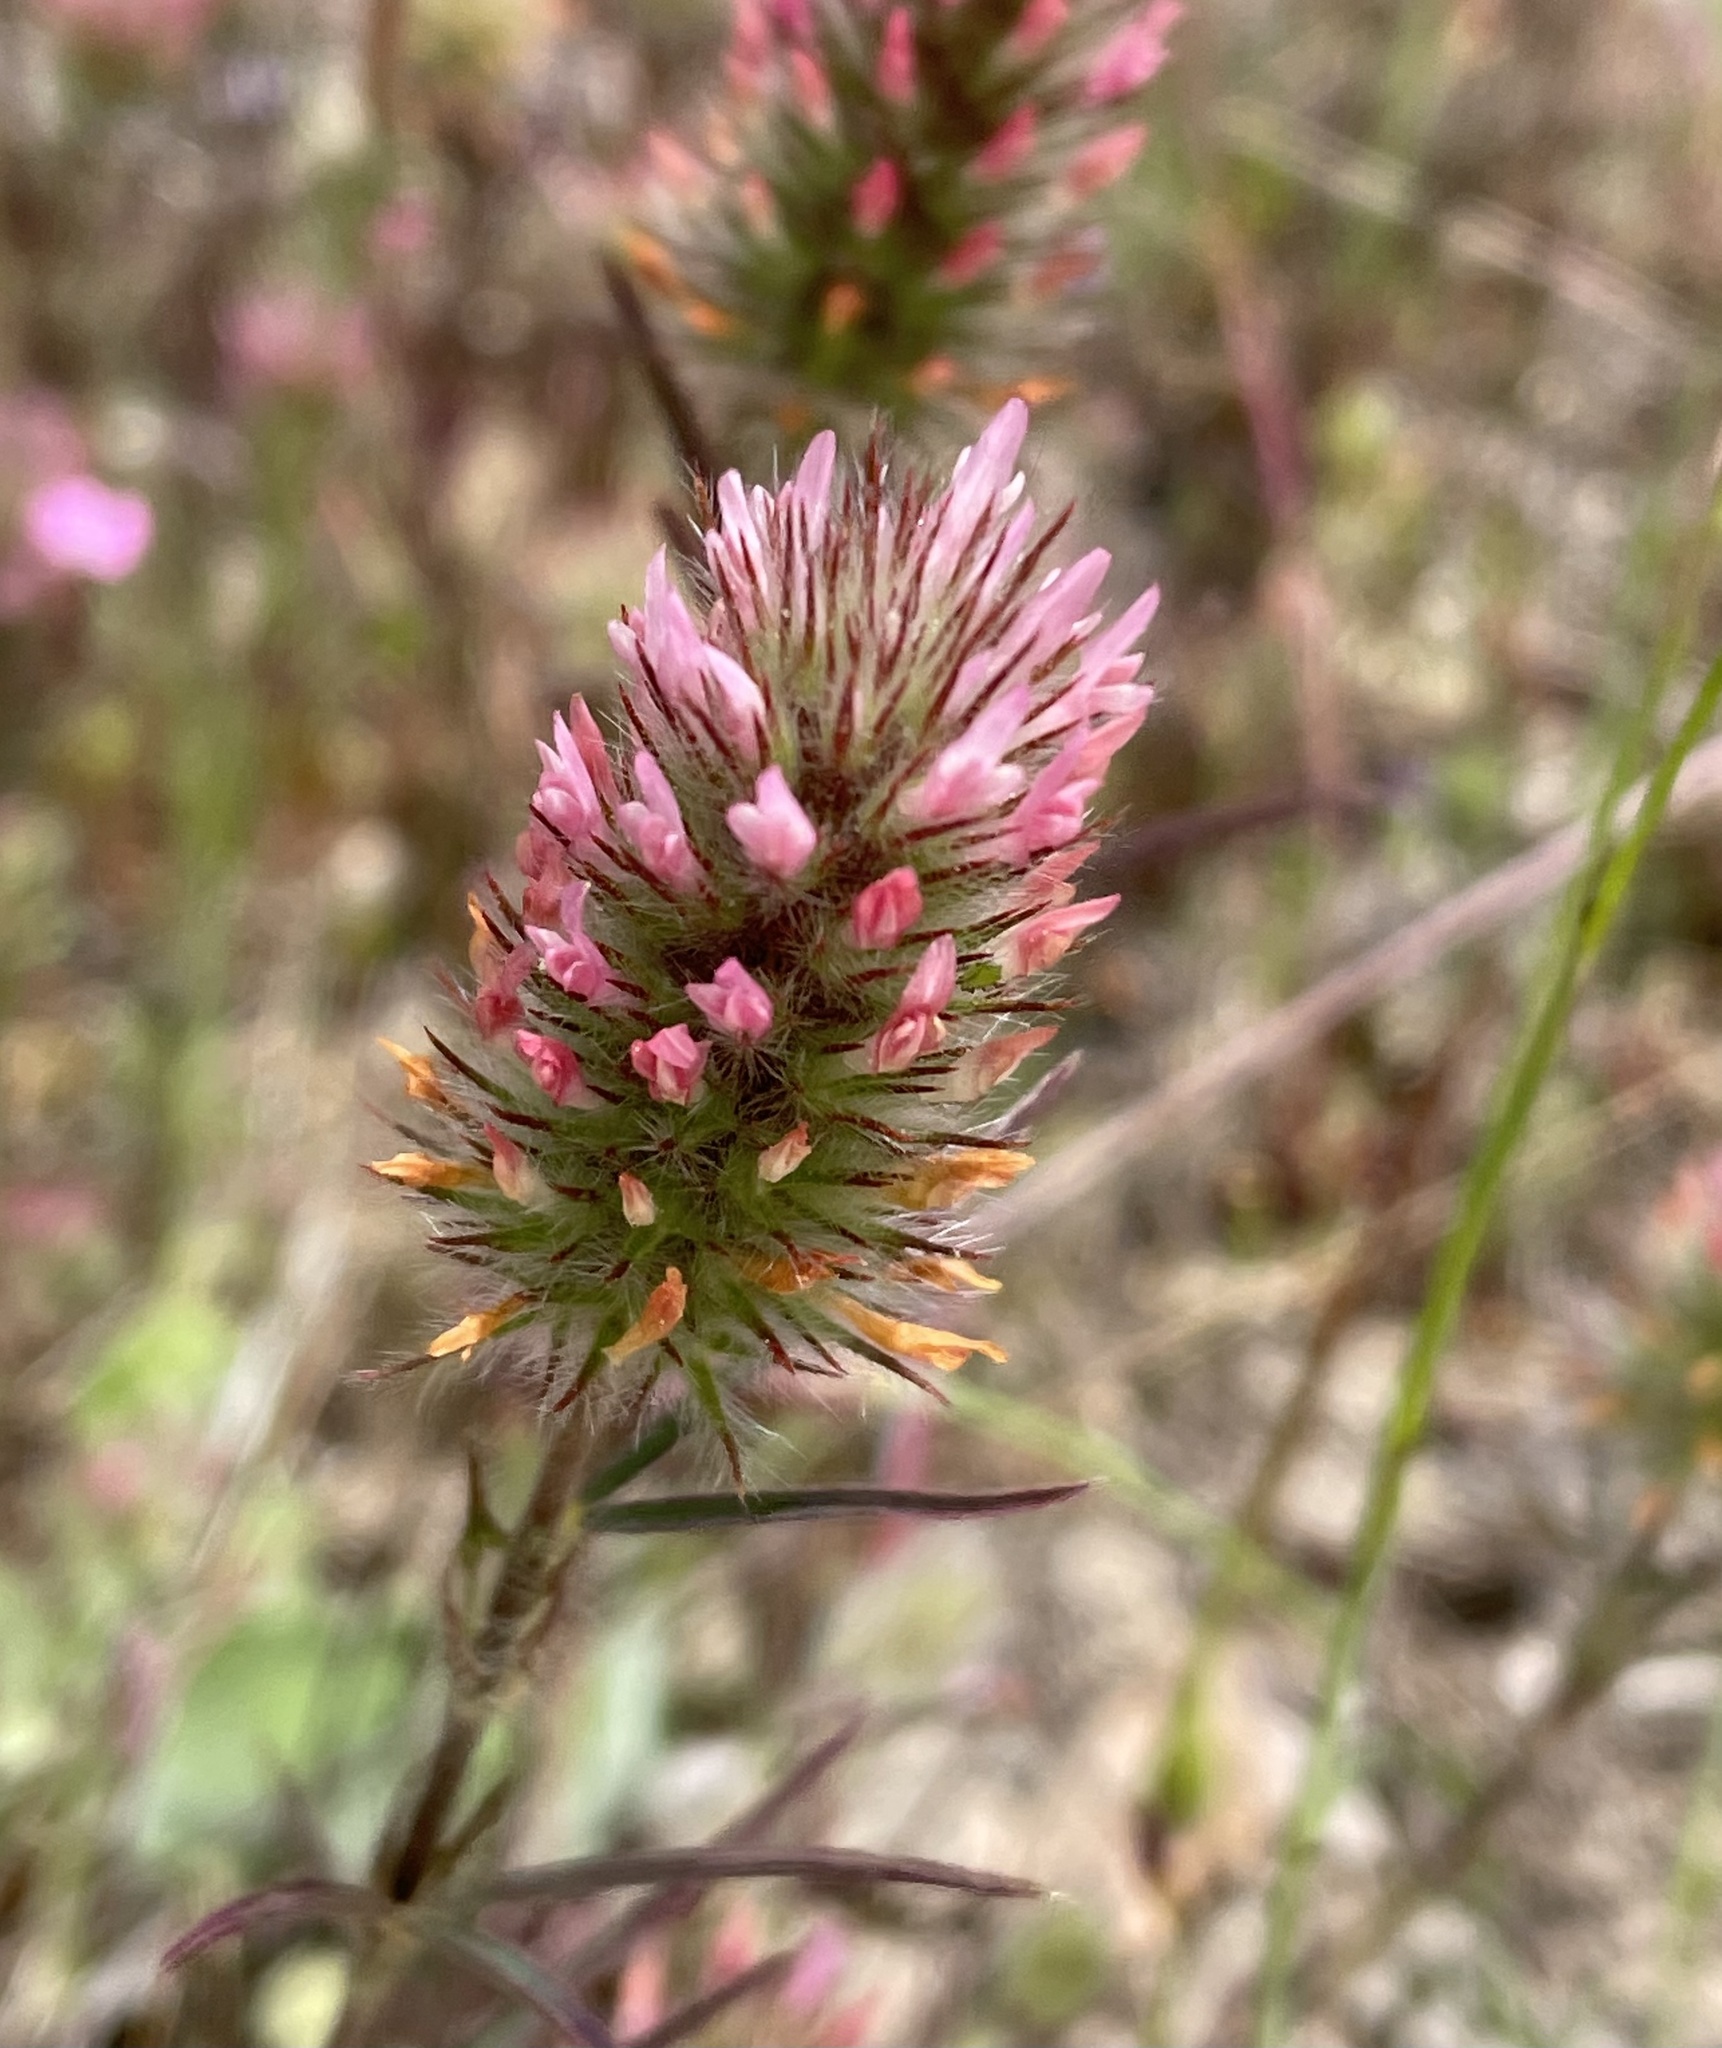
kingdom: Plantae
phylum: Tracheophyta
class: Magnoliopsida
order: Fabales
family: Fabaceae
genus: Trifolium
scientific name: Trifolium angustifolium
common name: Narrow clover
